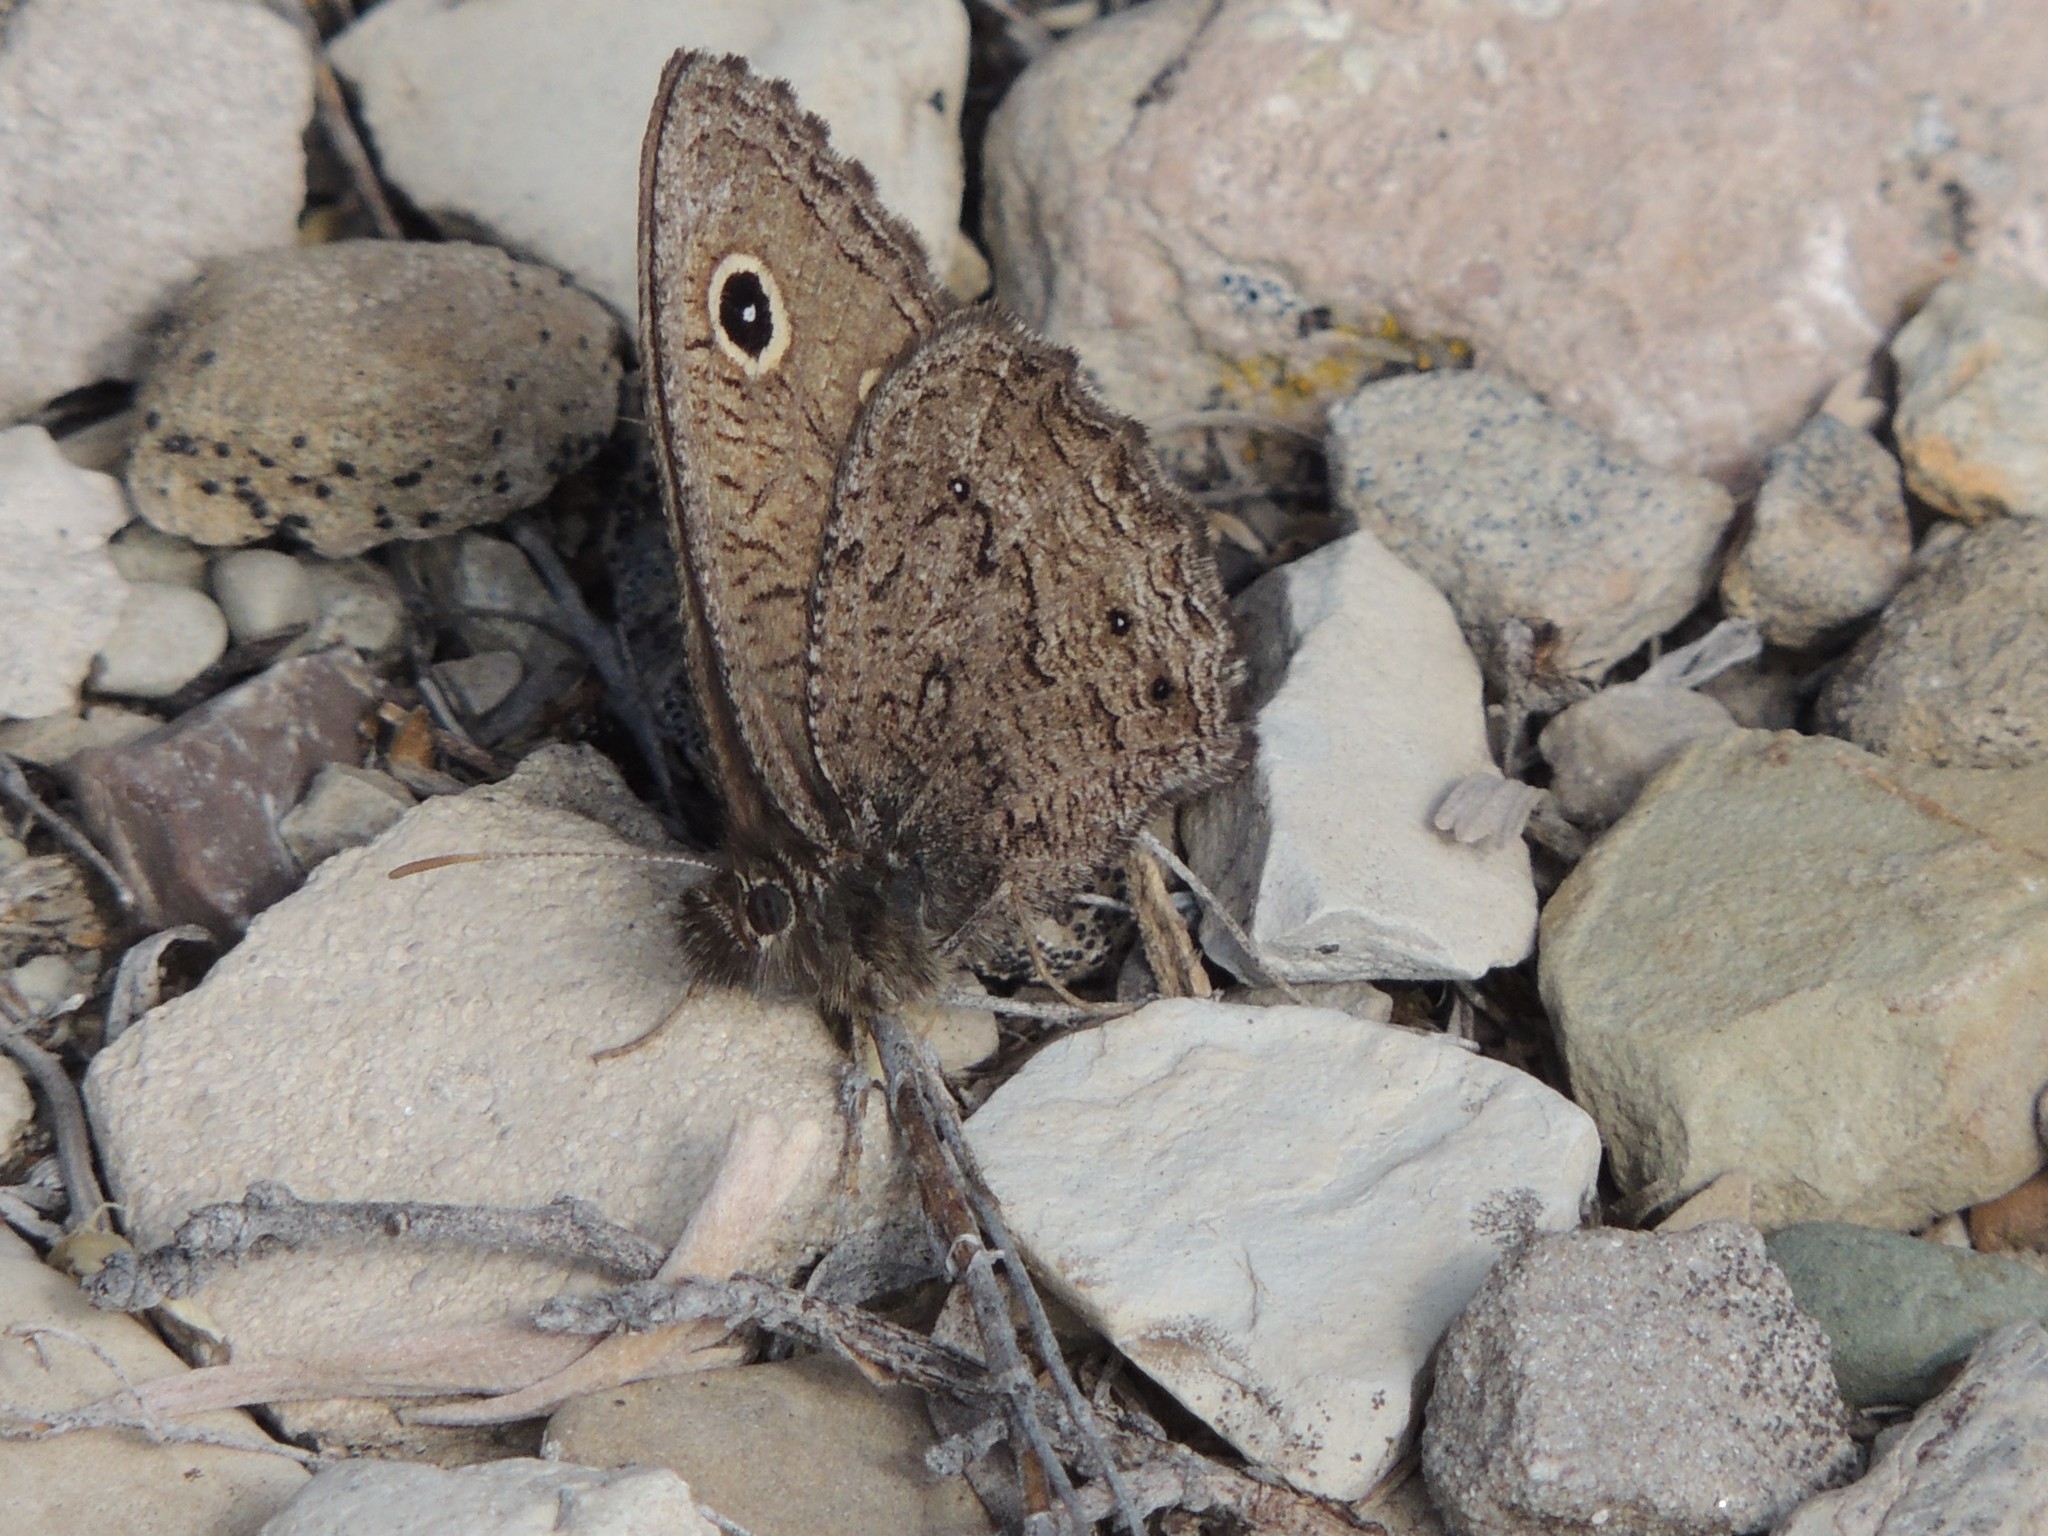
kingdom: Animalia
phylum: Arthropoda
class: Insecta
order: Lepidoptera
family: Nymphalidae
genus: Cercyonis
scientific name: Cercyonis oetus
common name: Small wood-nymph
